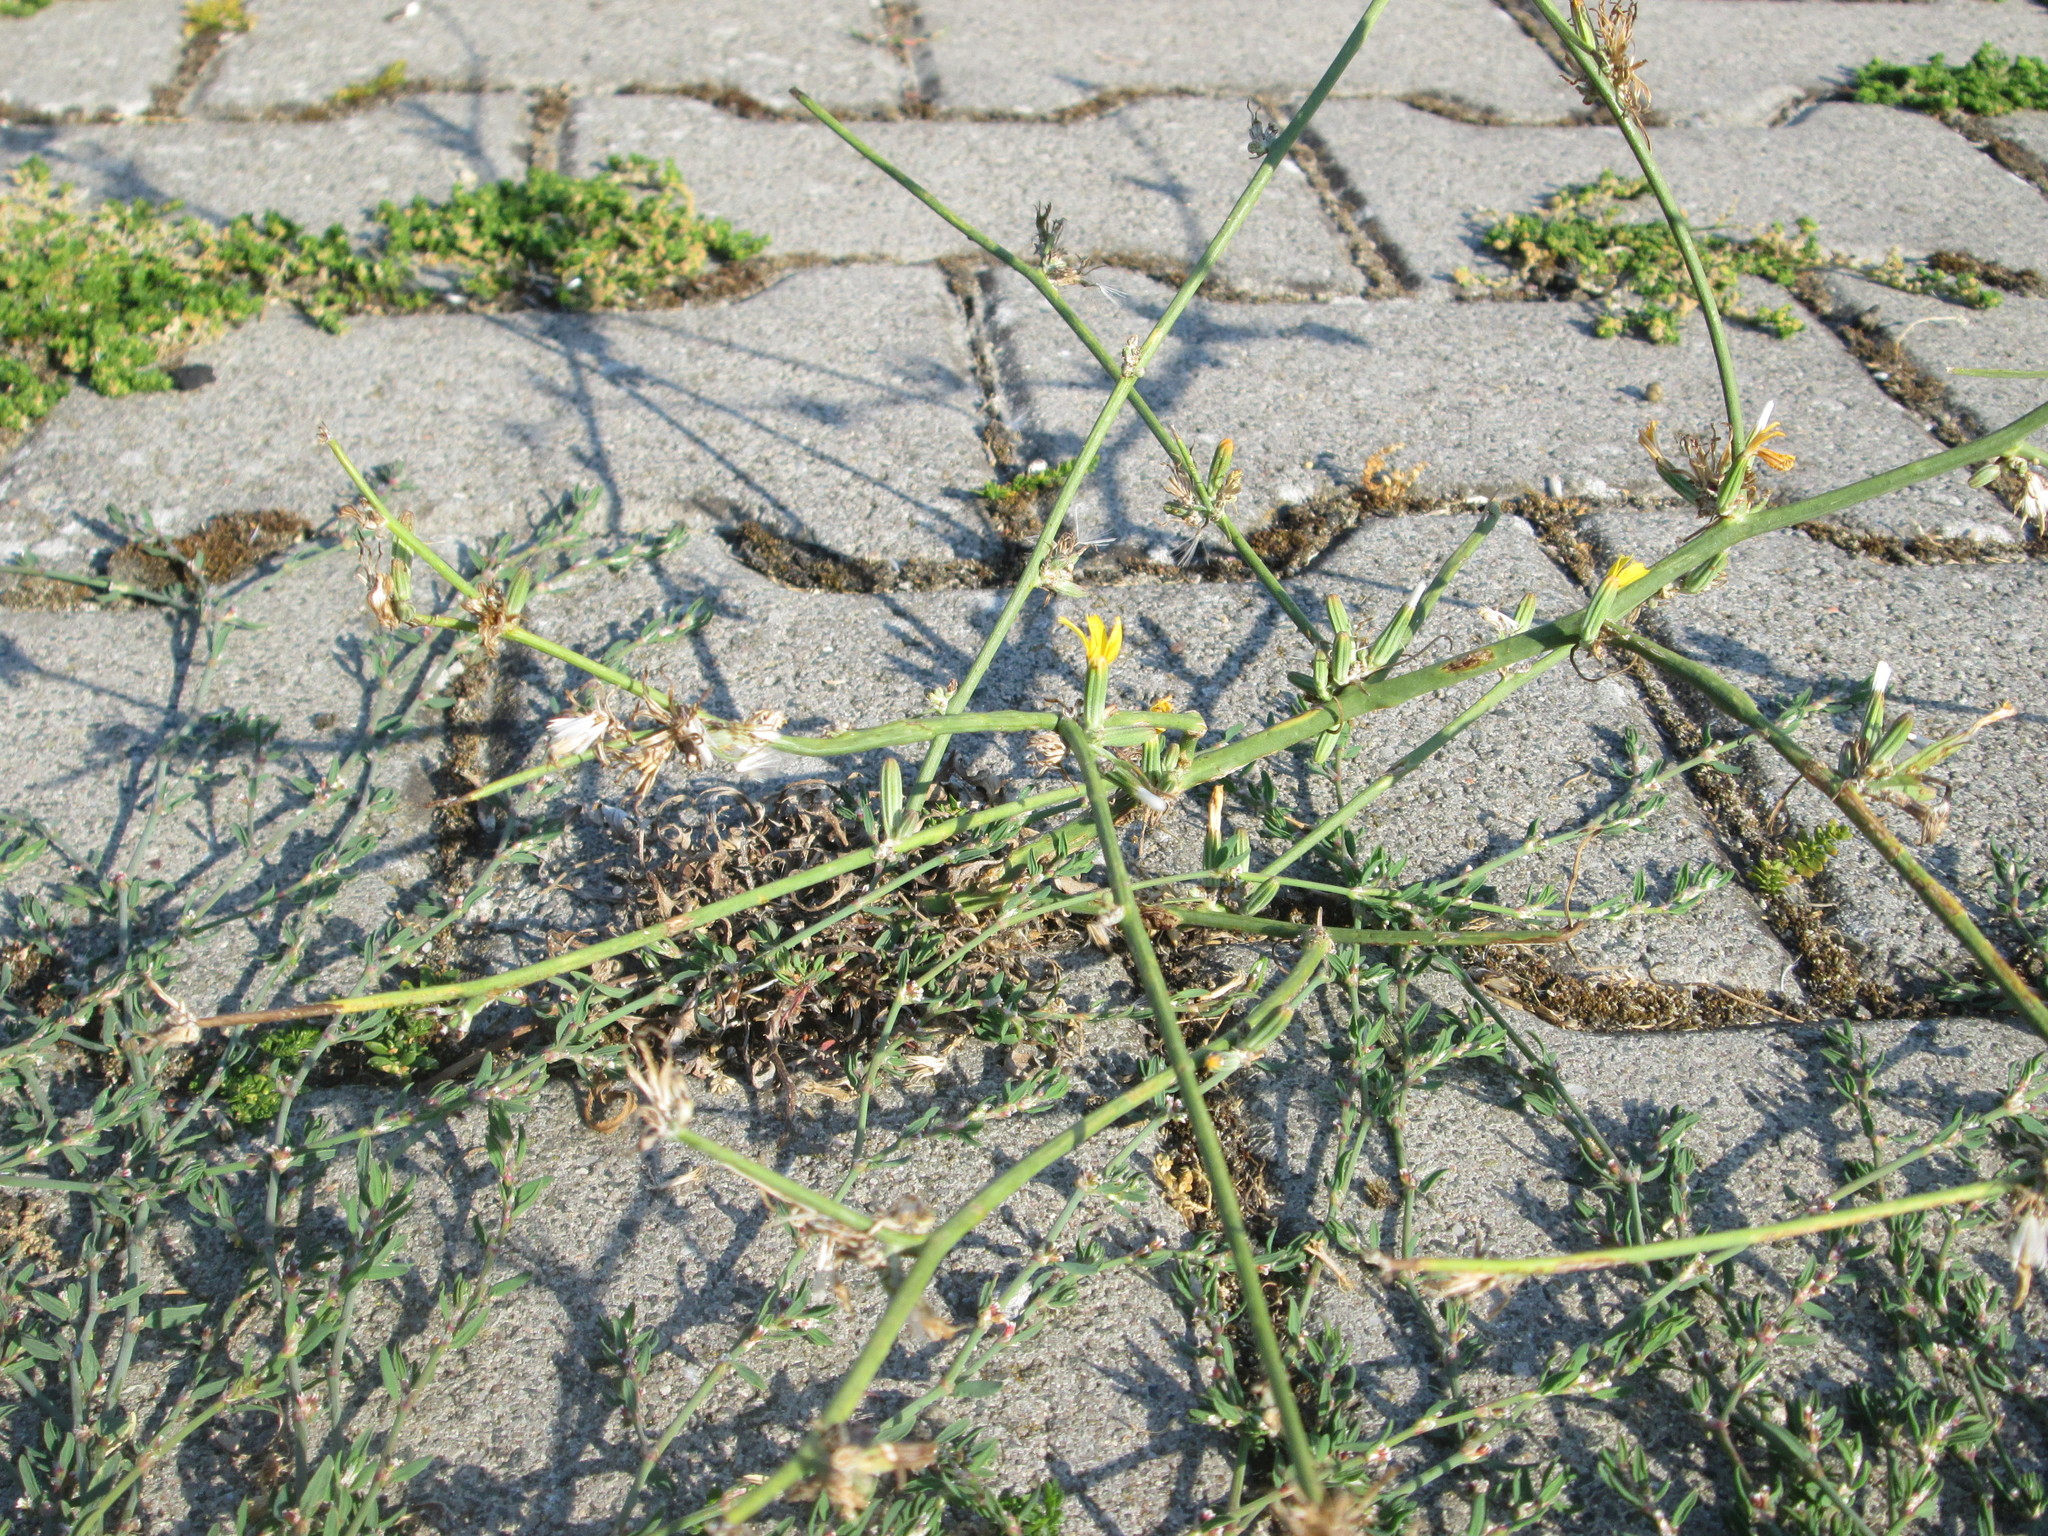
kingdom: Plantae
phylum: Tracheophyta
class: Magnoliopsida
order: Asterales
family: Asteraceae
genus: Chondrilla
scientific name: Chondrilla juncea
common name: Skeleton weed
